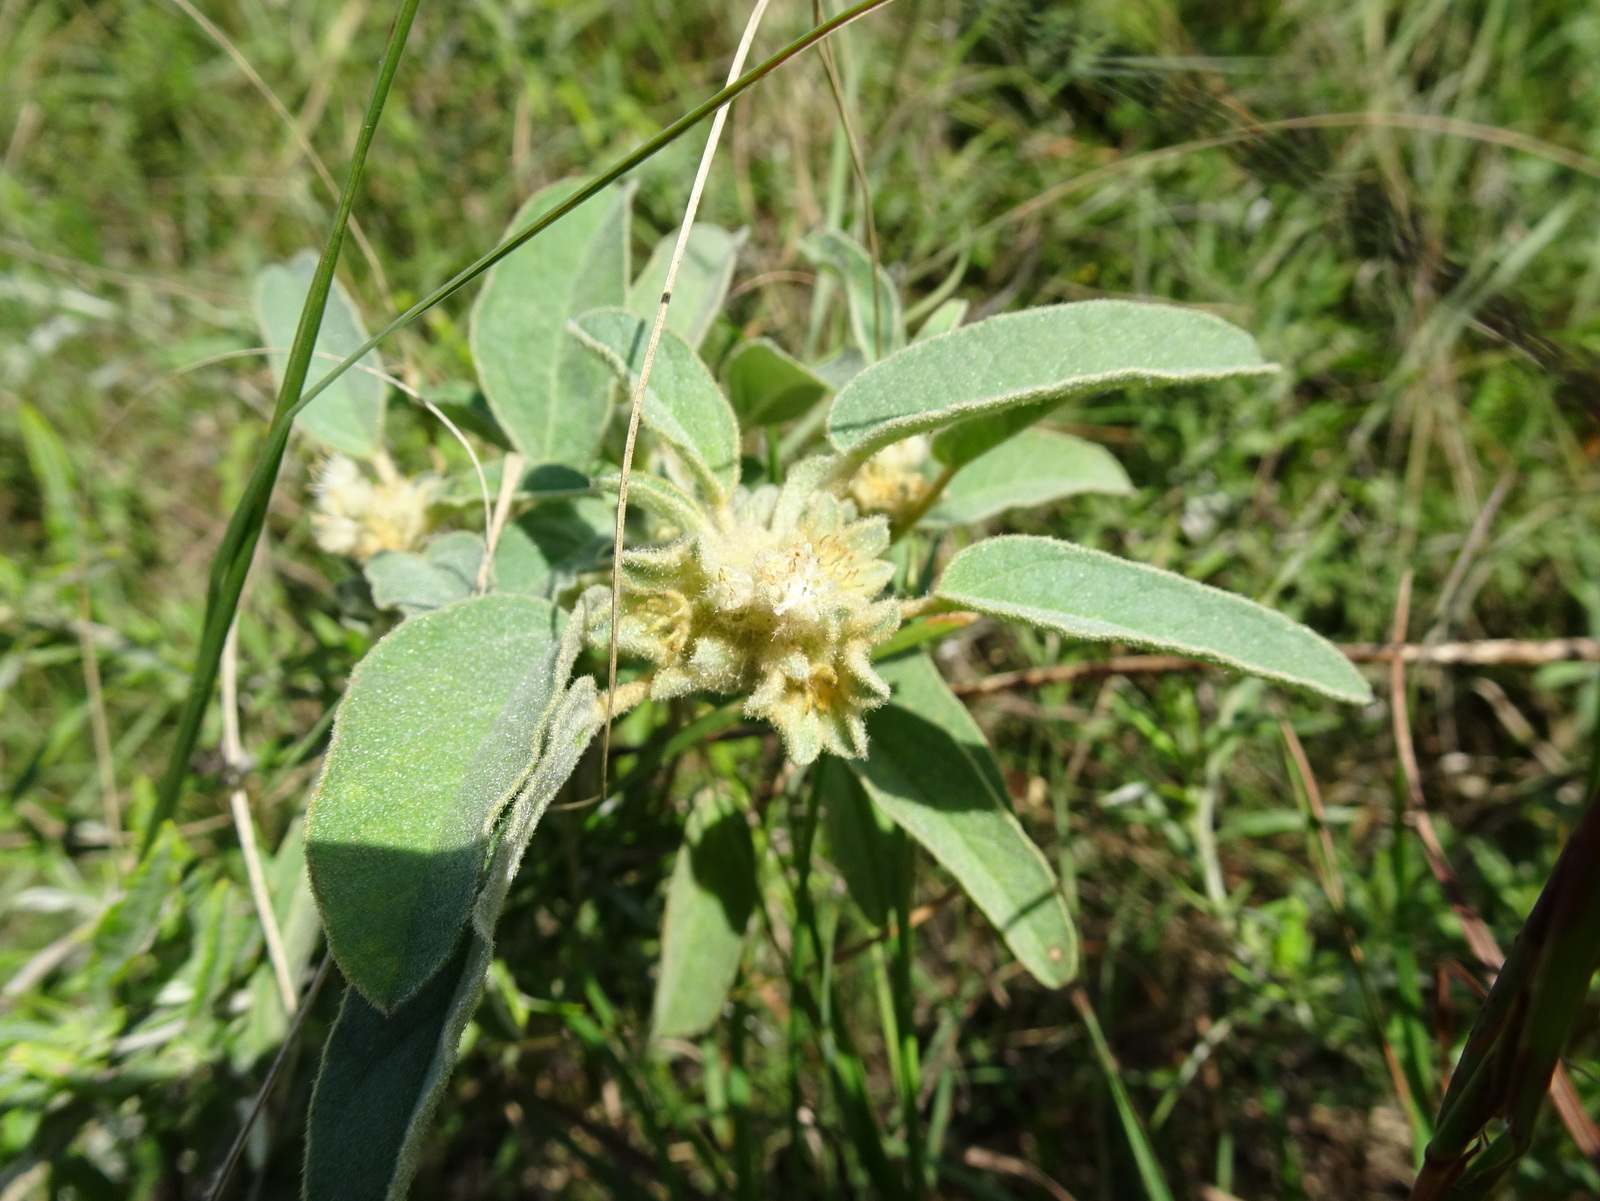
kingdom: Plantae
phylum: Tracheophyta
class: Magnoliopsida
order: Malpighiales
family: Euphorbiaceae
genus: Croton
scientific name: Croton capitatus
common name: Woolly croton
